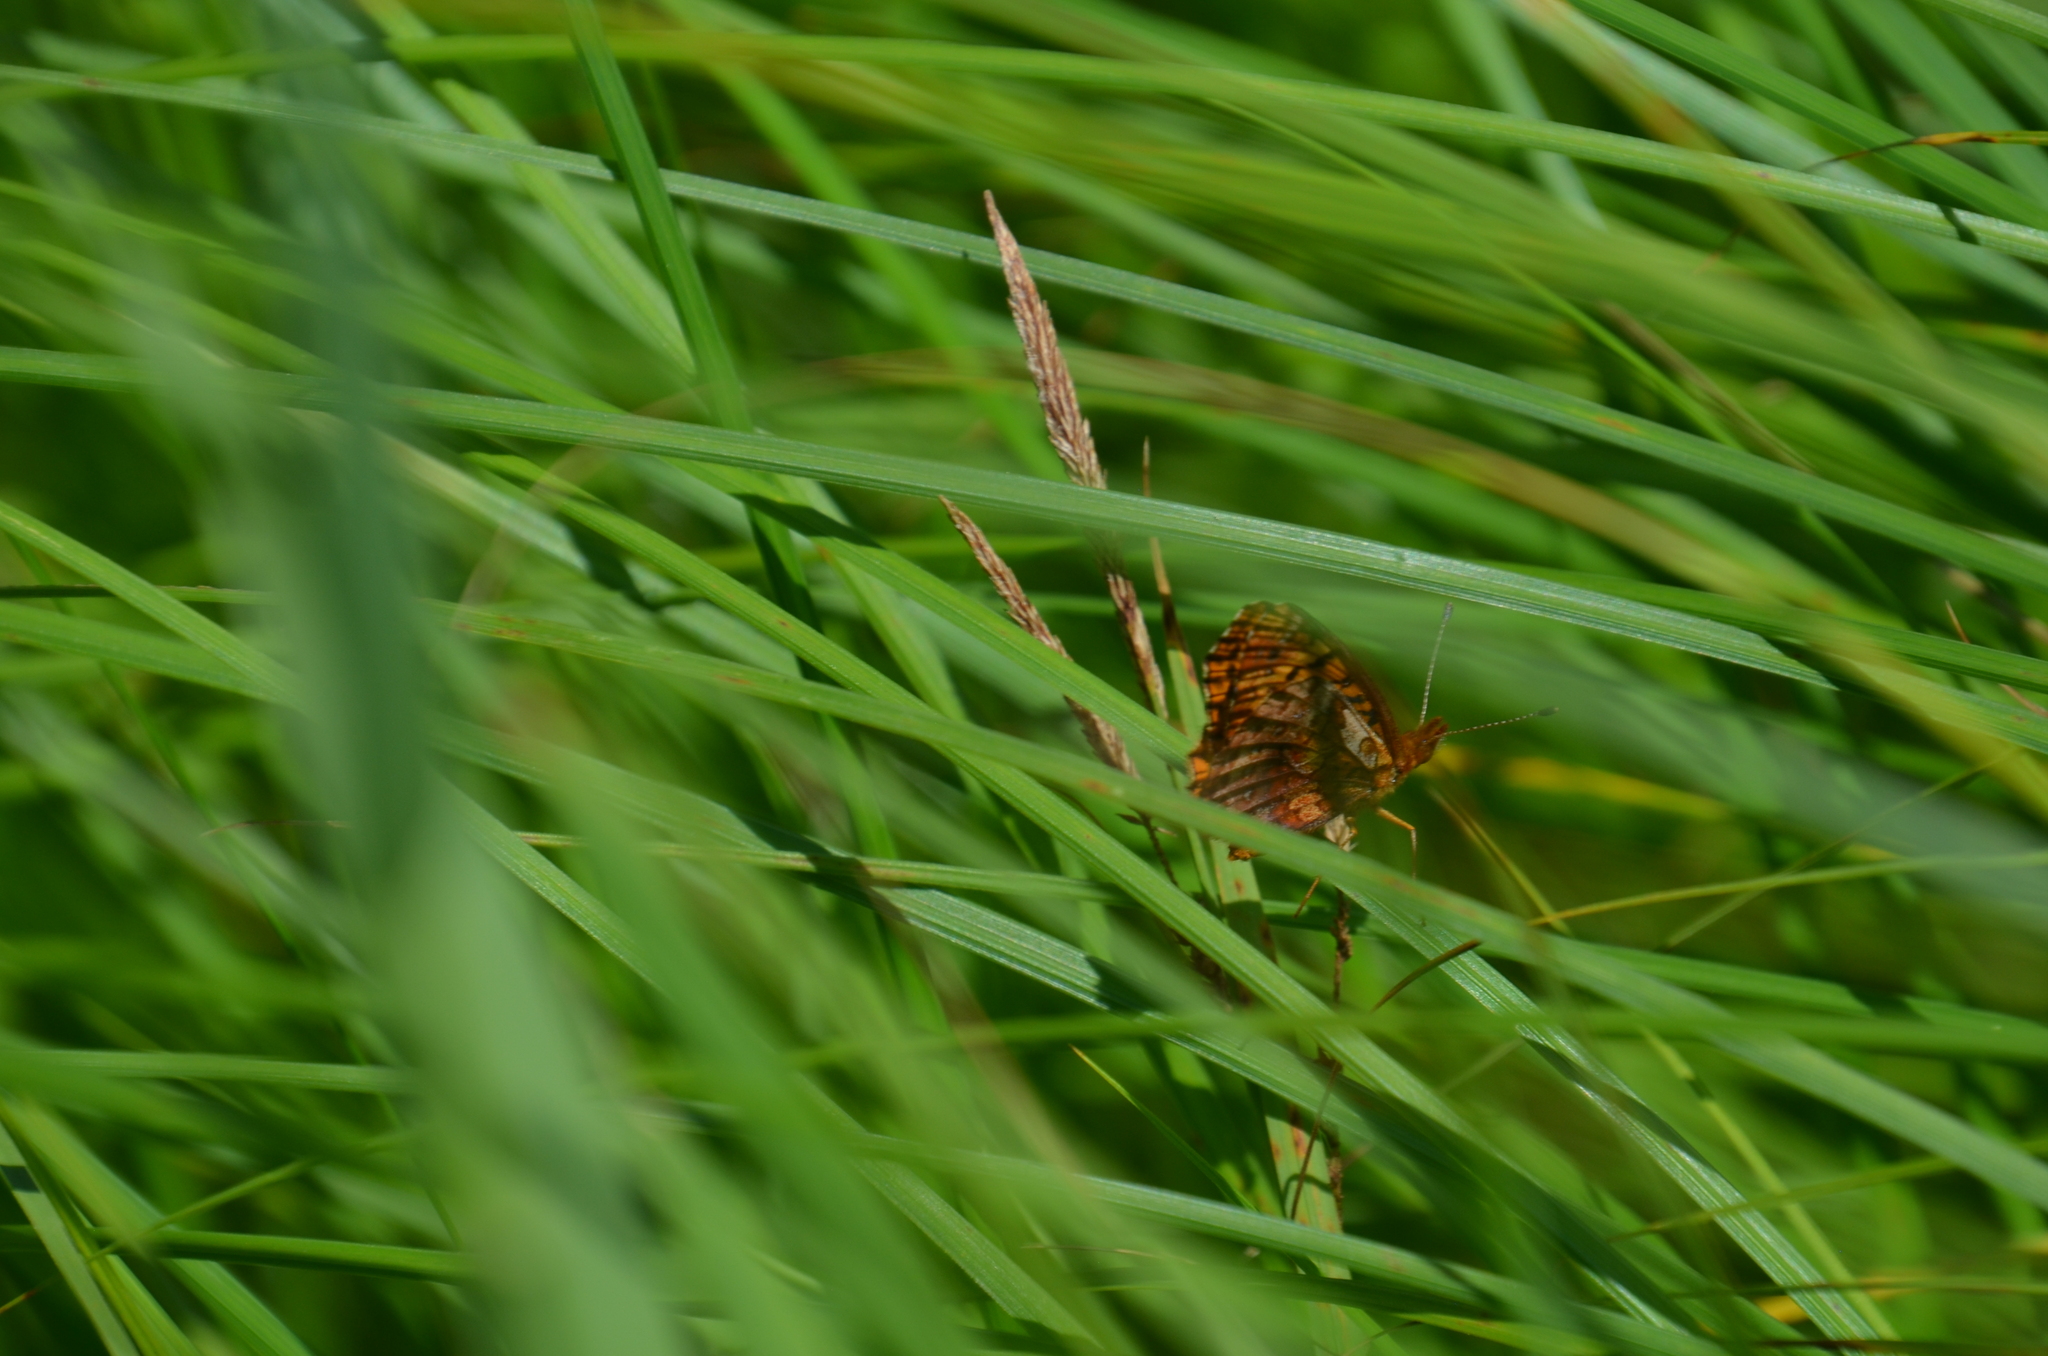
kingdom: Animalia
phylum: Arthropoda
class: Insecta
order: Lepidoptera
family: Nymphalidae
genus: Clossiana
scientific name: Clossiana toddi
